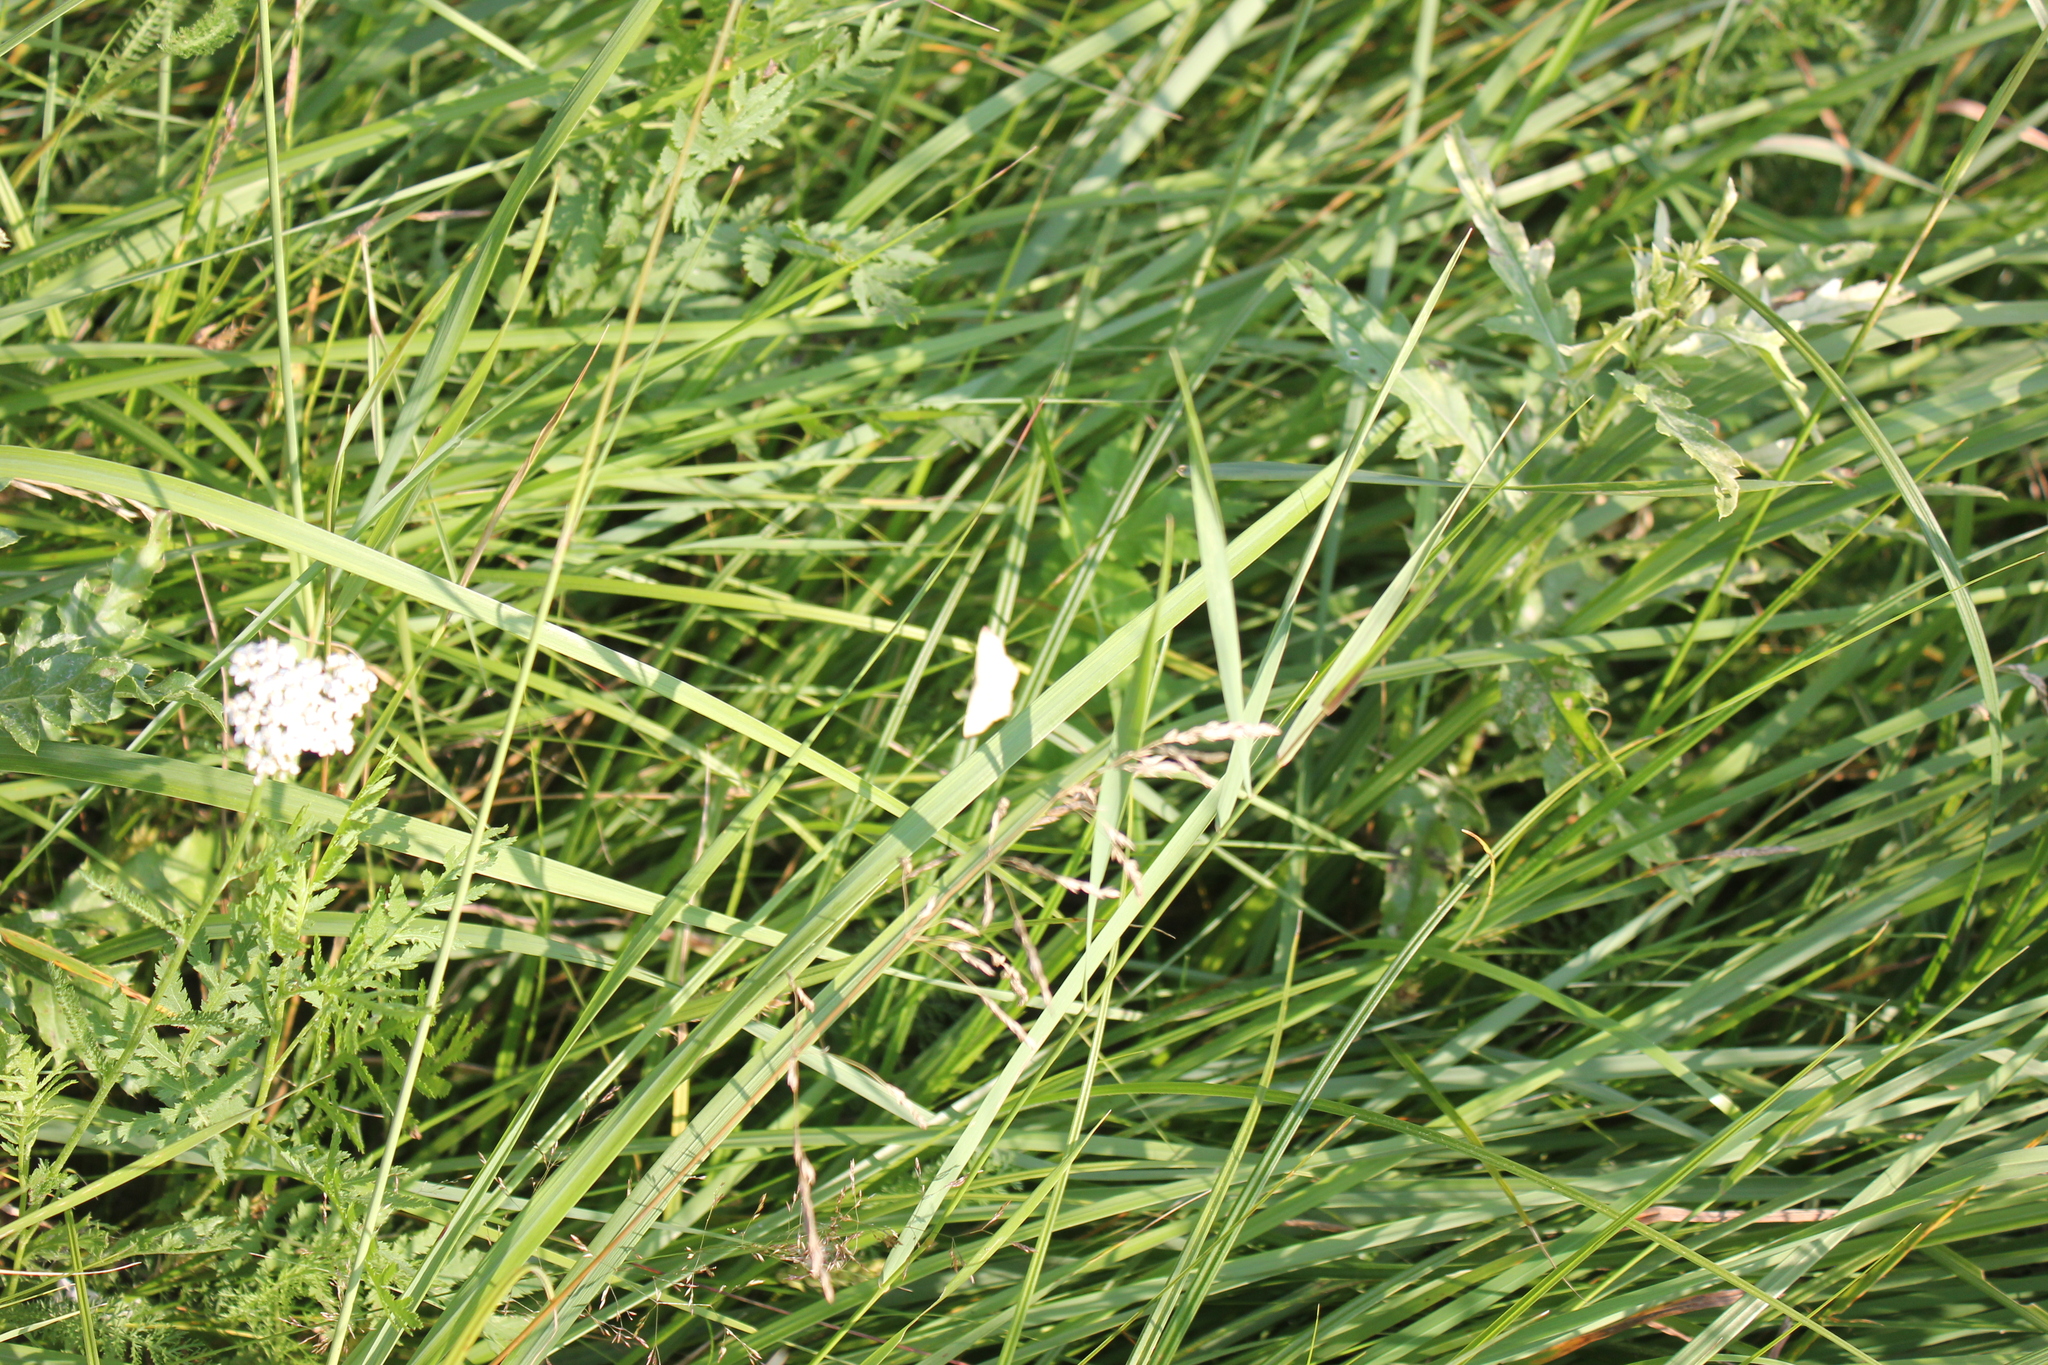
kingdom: Animalia
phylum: Arthropoda
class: Insecta
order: Lepidoptera
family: Geometridae
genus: Timandra
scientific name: Timandra comae
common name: Blood-vein
